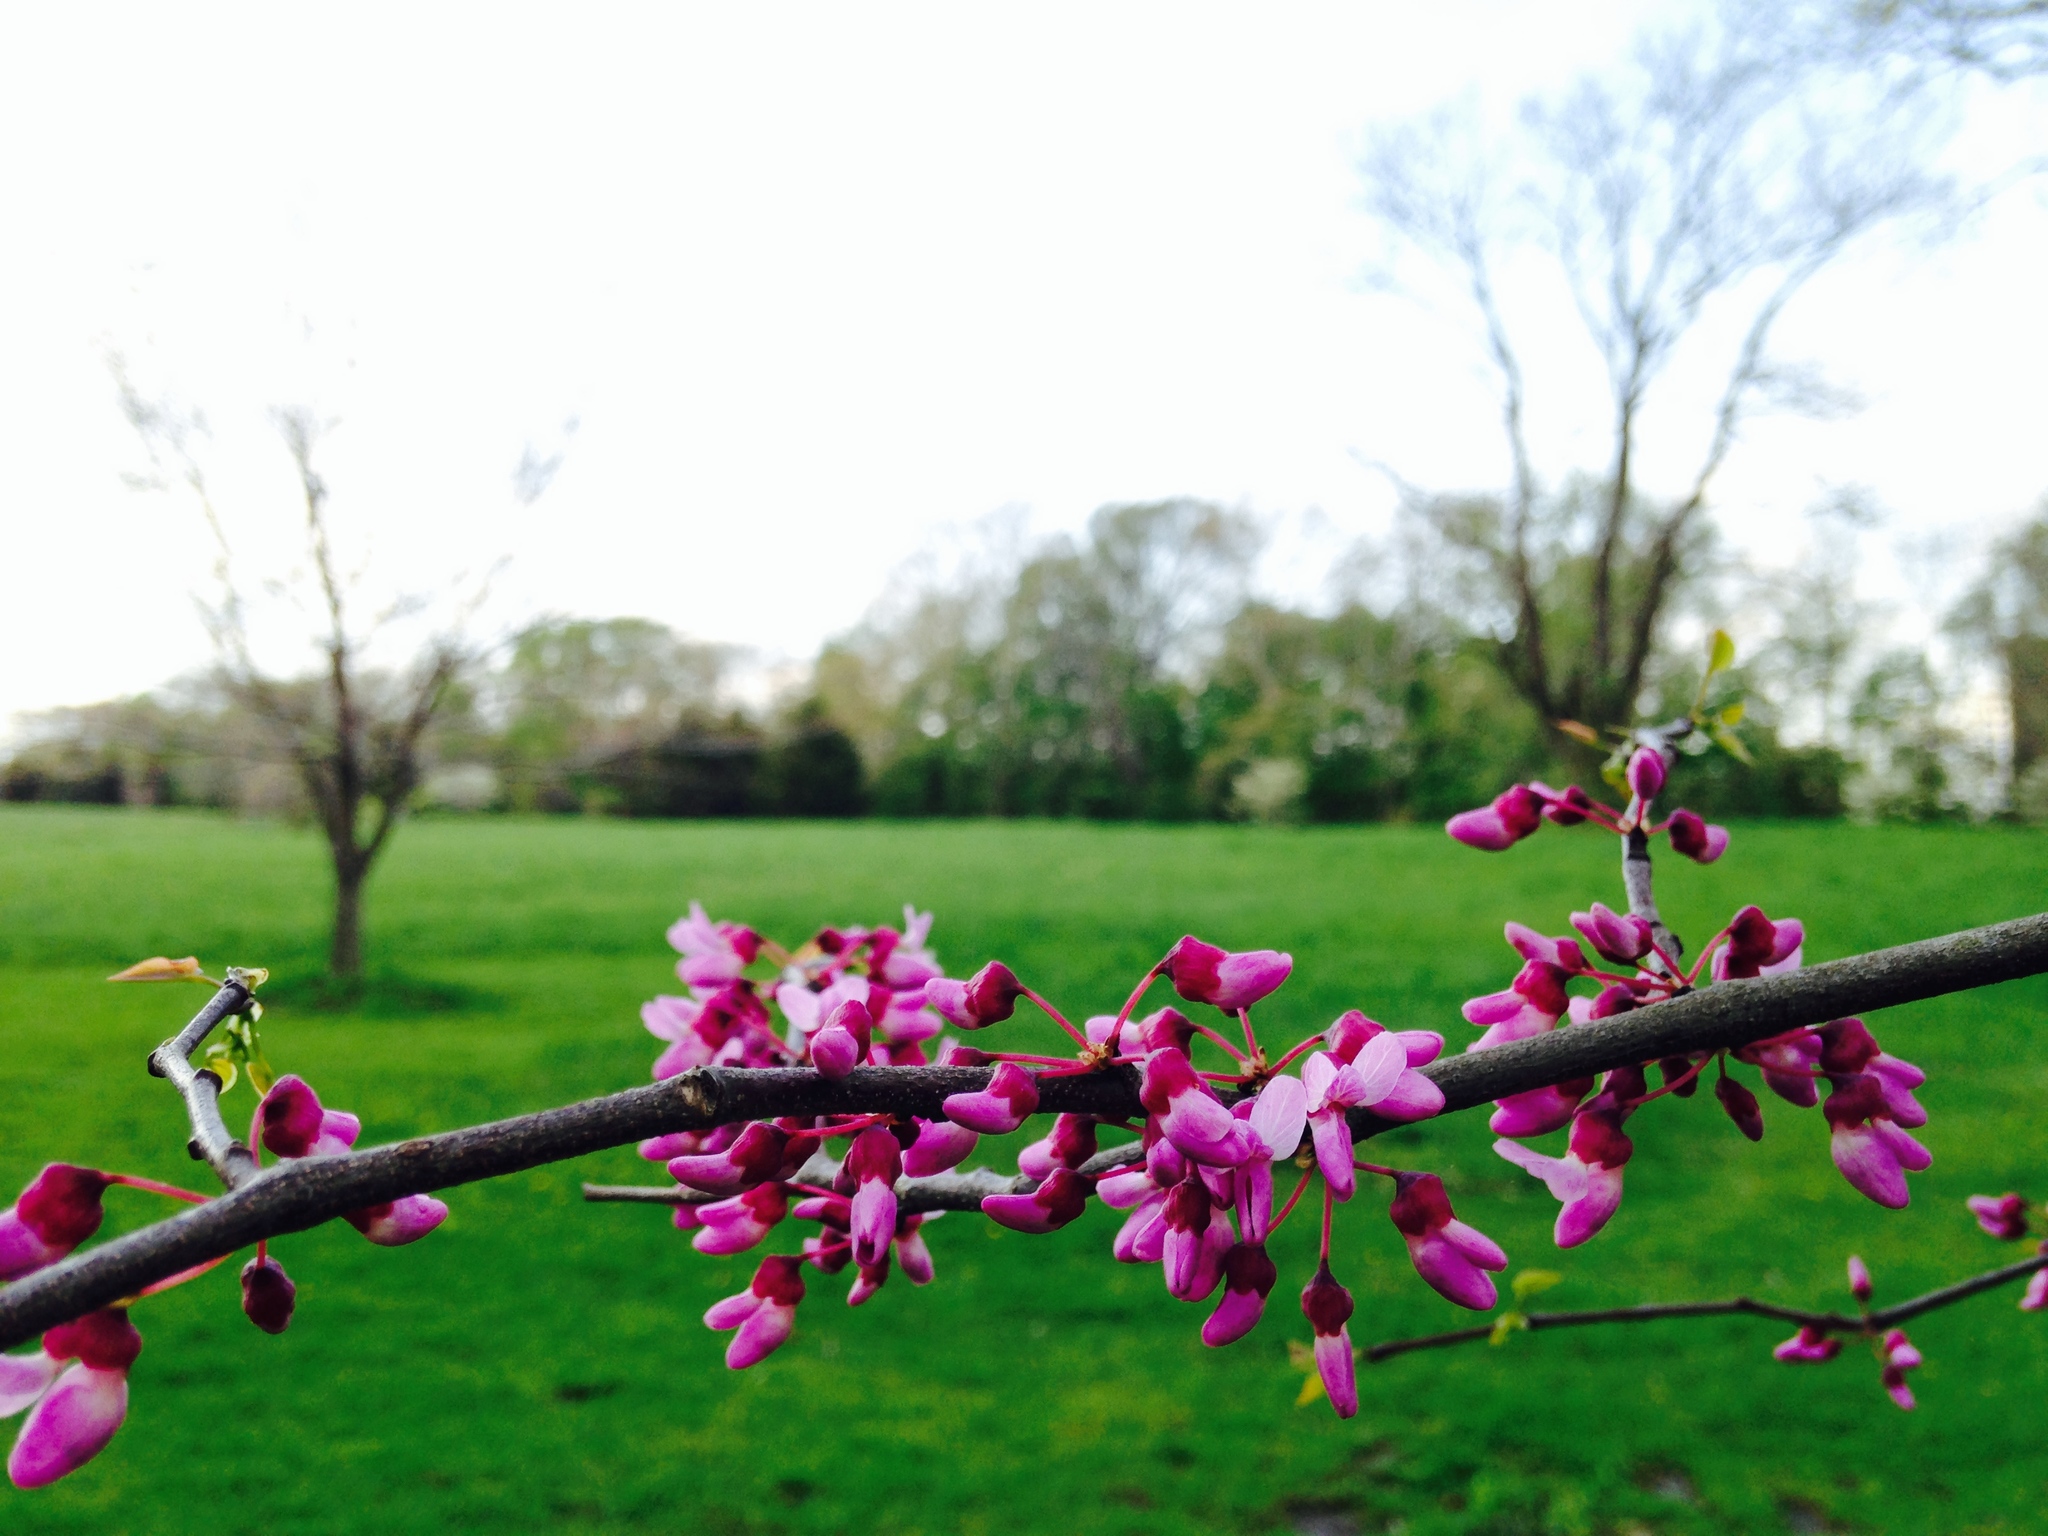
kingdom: Plantae
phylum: Tracheophyta
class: Magnoliopsida
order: Fabales
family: Fabaceae
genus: Cercis
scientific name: Cercis canadensis
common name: Eastern redbud
